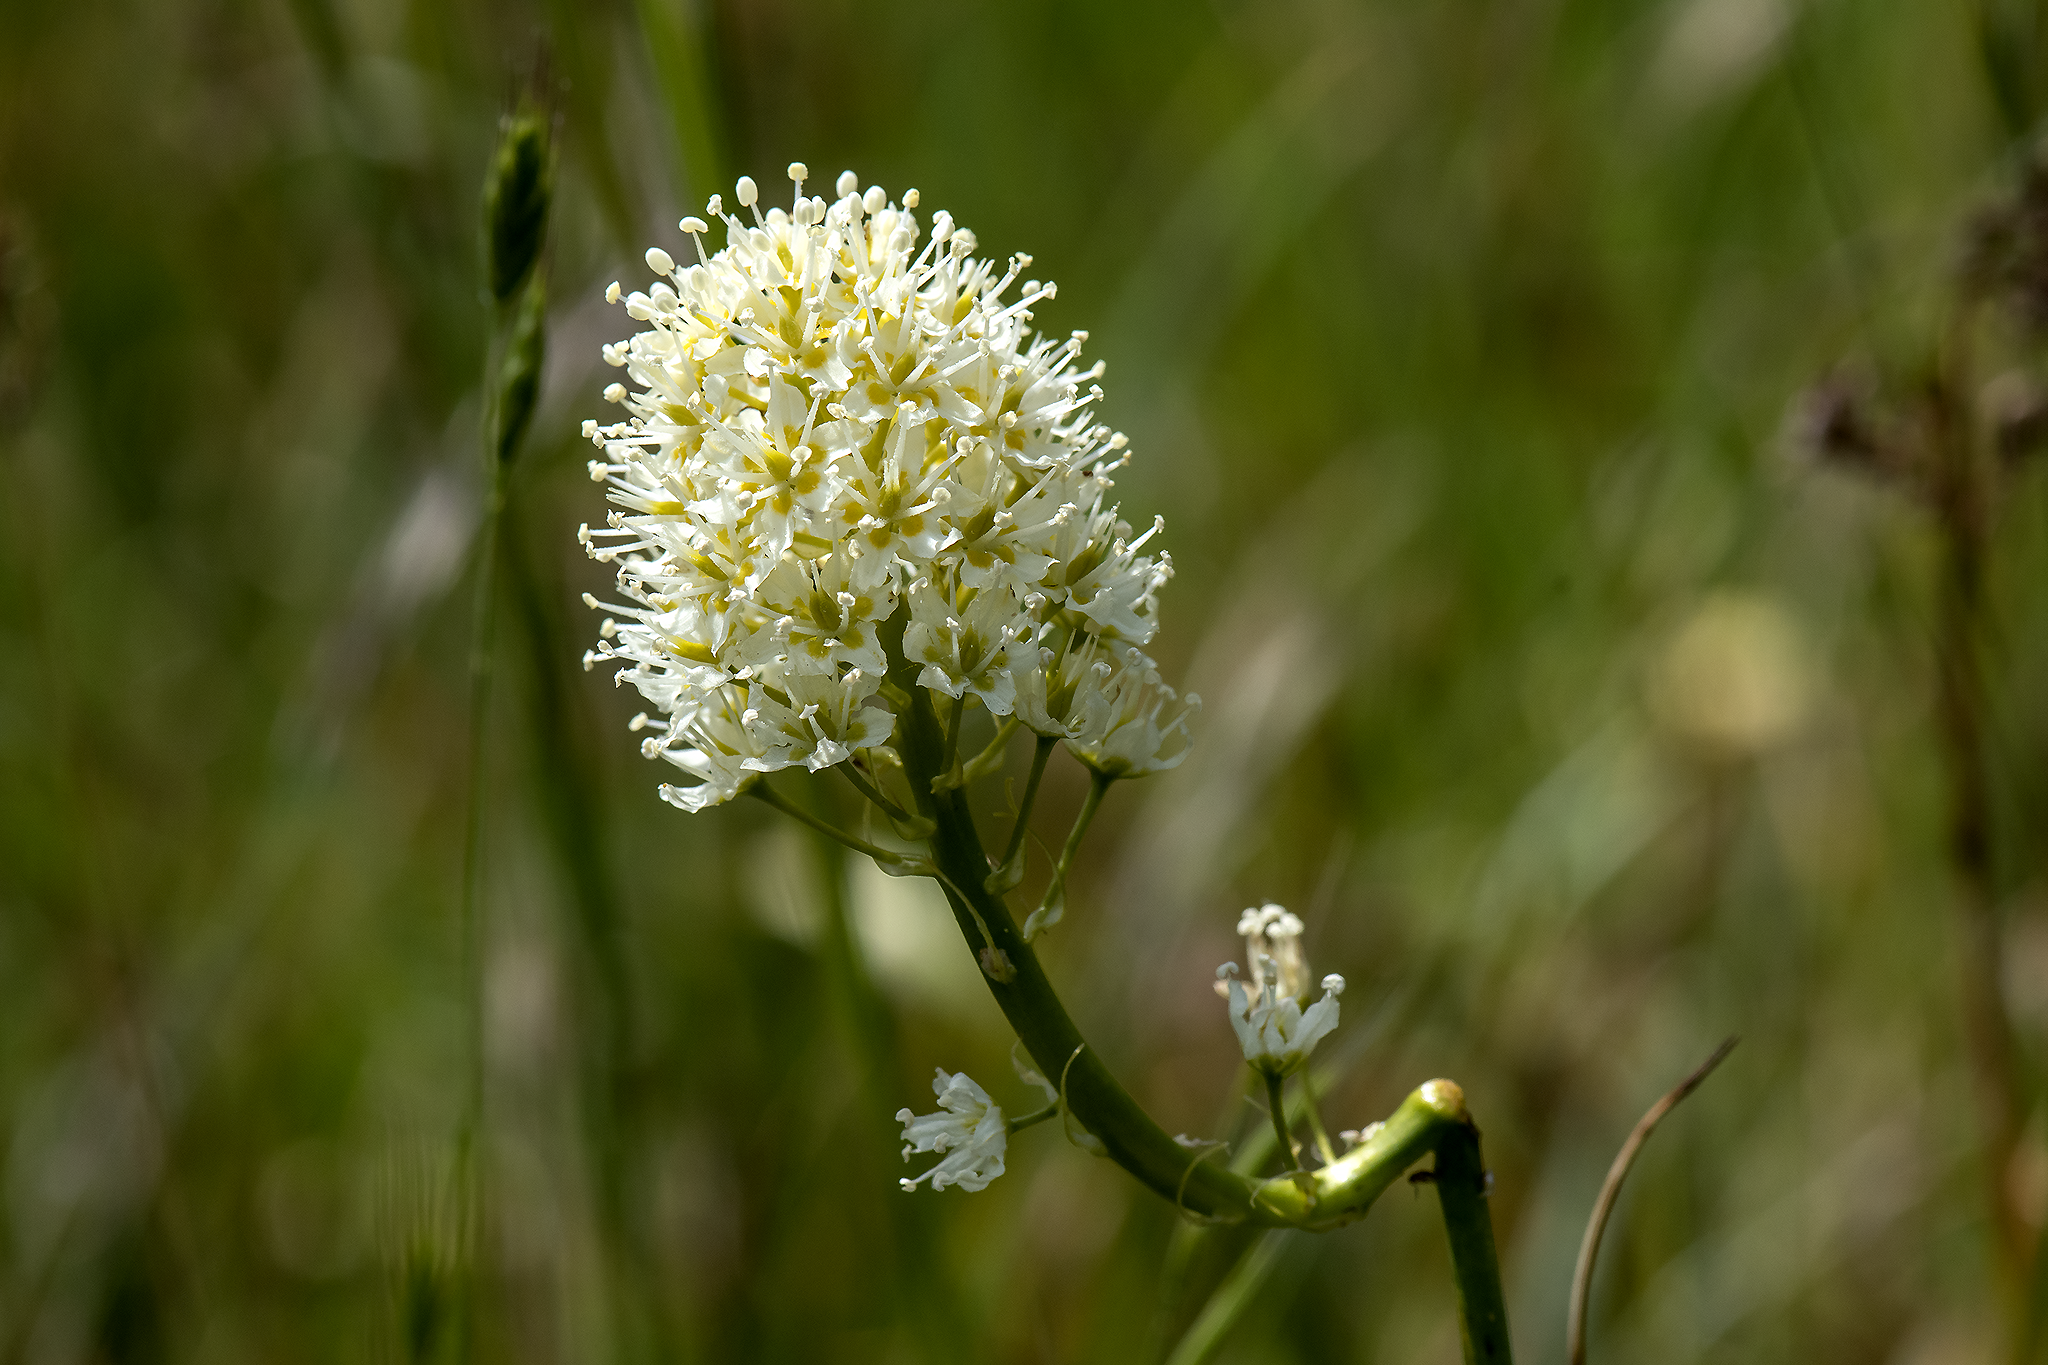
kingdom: Plantae
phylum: Tracheophyta
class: Liliopsida
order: Liliales
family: Melanthiaceae
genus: Toxicoscordion
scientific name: Toxicoscordion venenosum
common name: Meadow death camas
